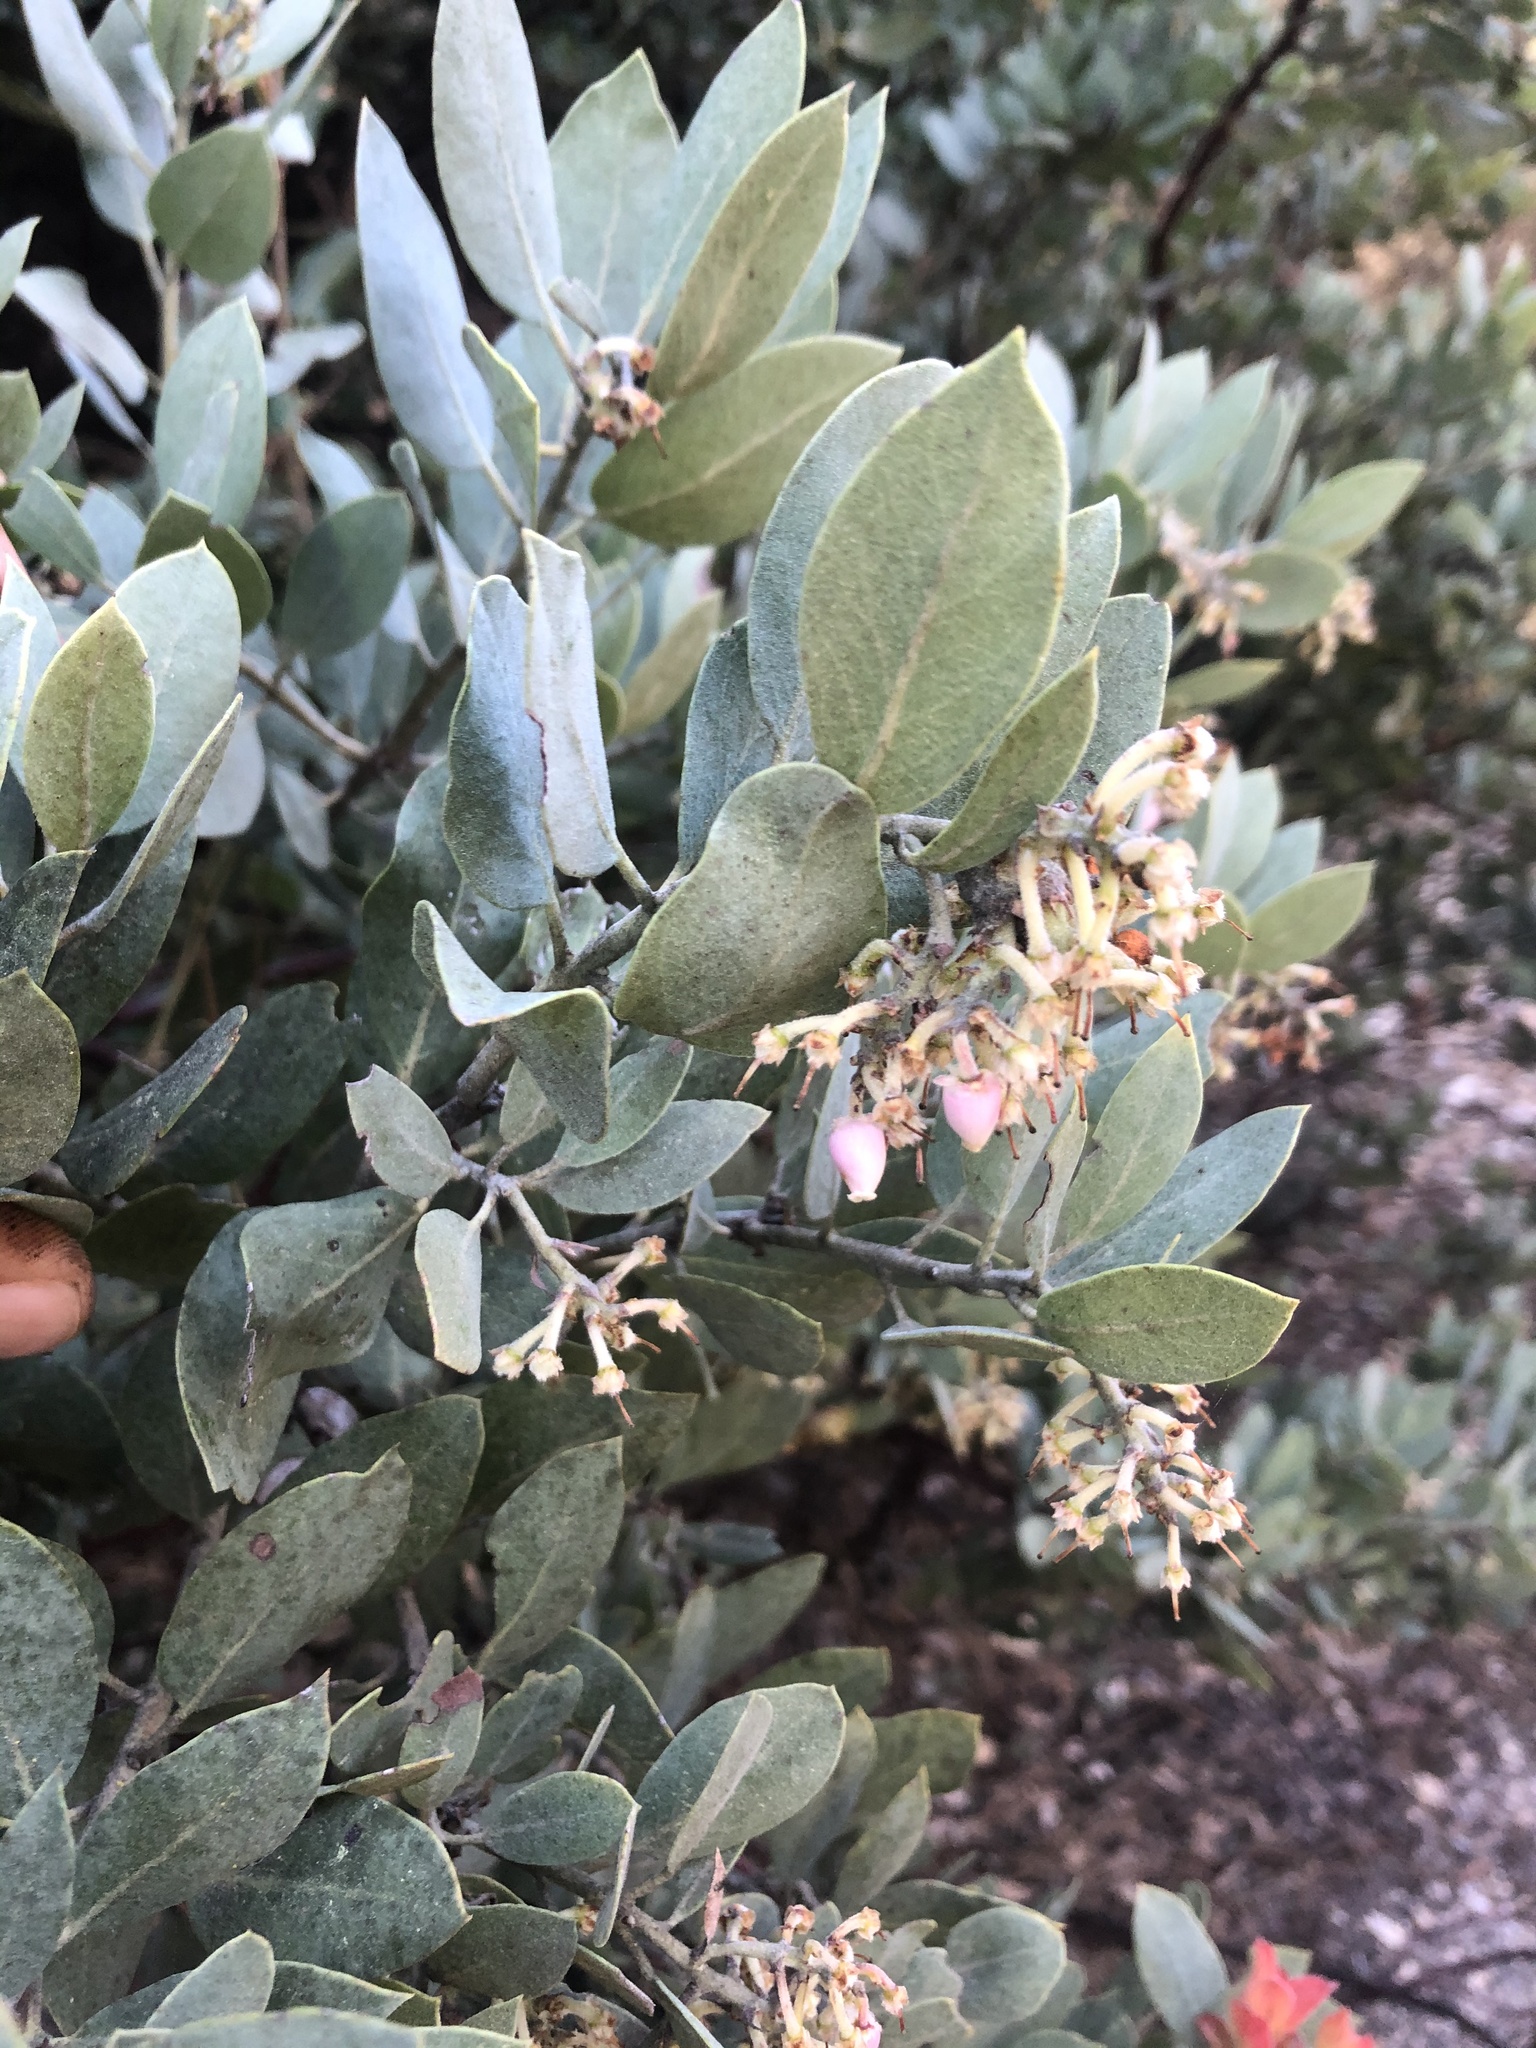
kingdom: Plantae
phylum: Tracheophyta
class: Magnoliopsida
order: Ericales
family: Ericaceae
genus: Arctostaphylos
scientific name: Arctostaphylos glandulosa
